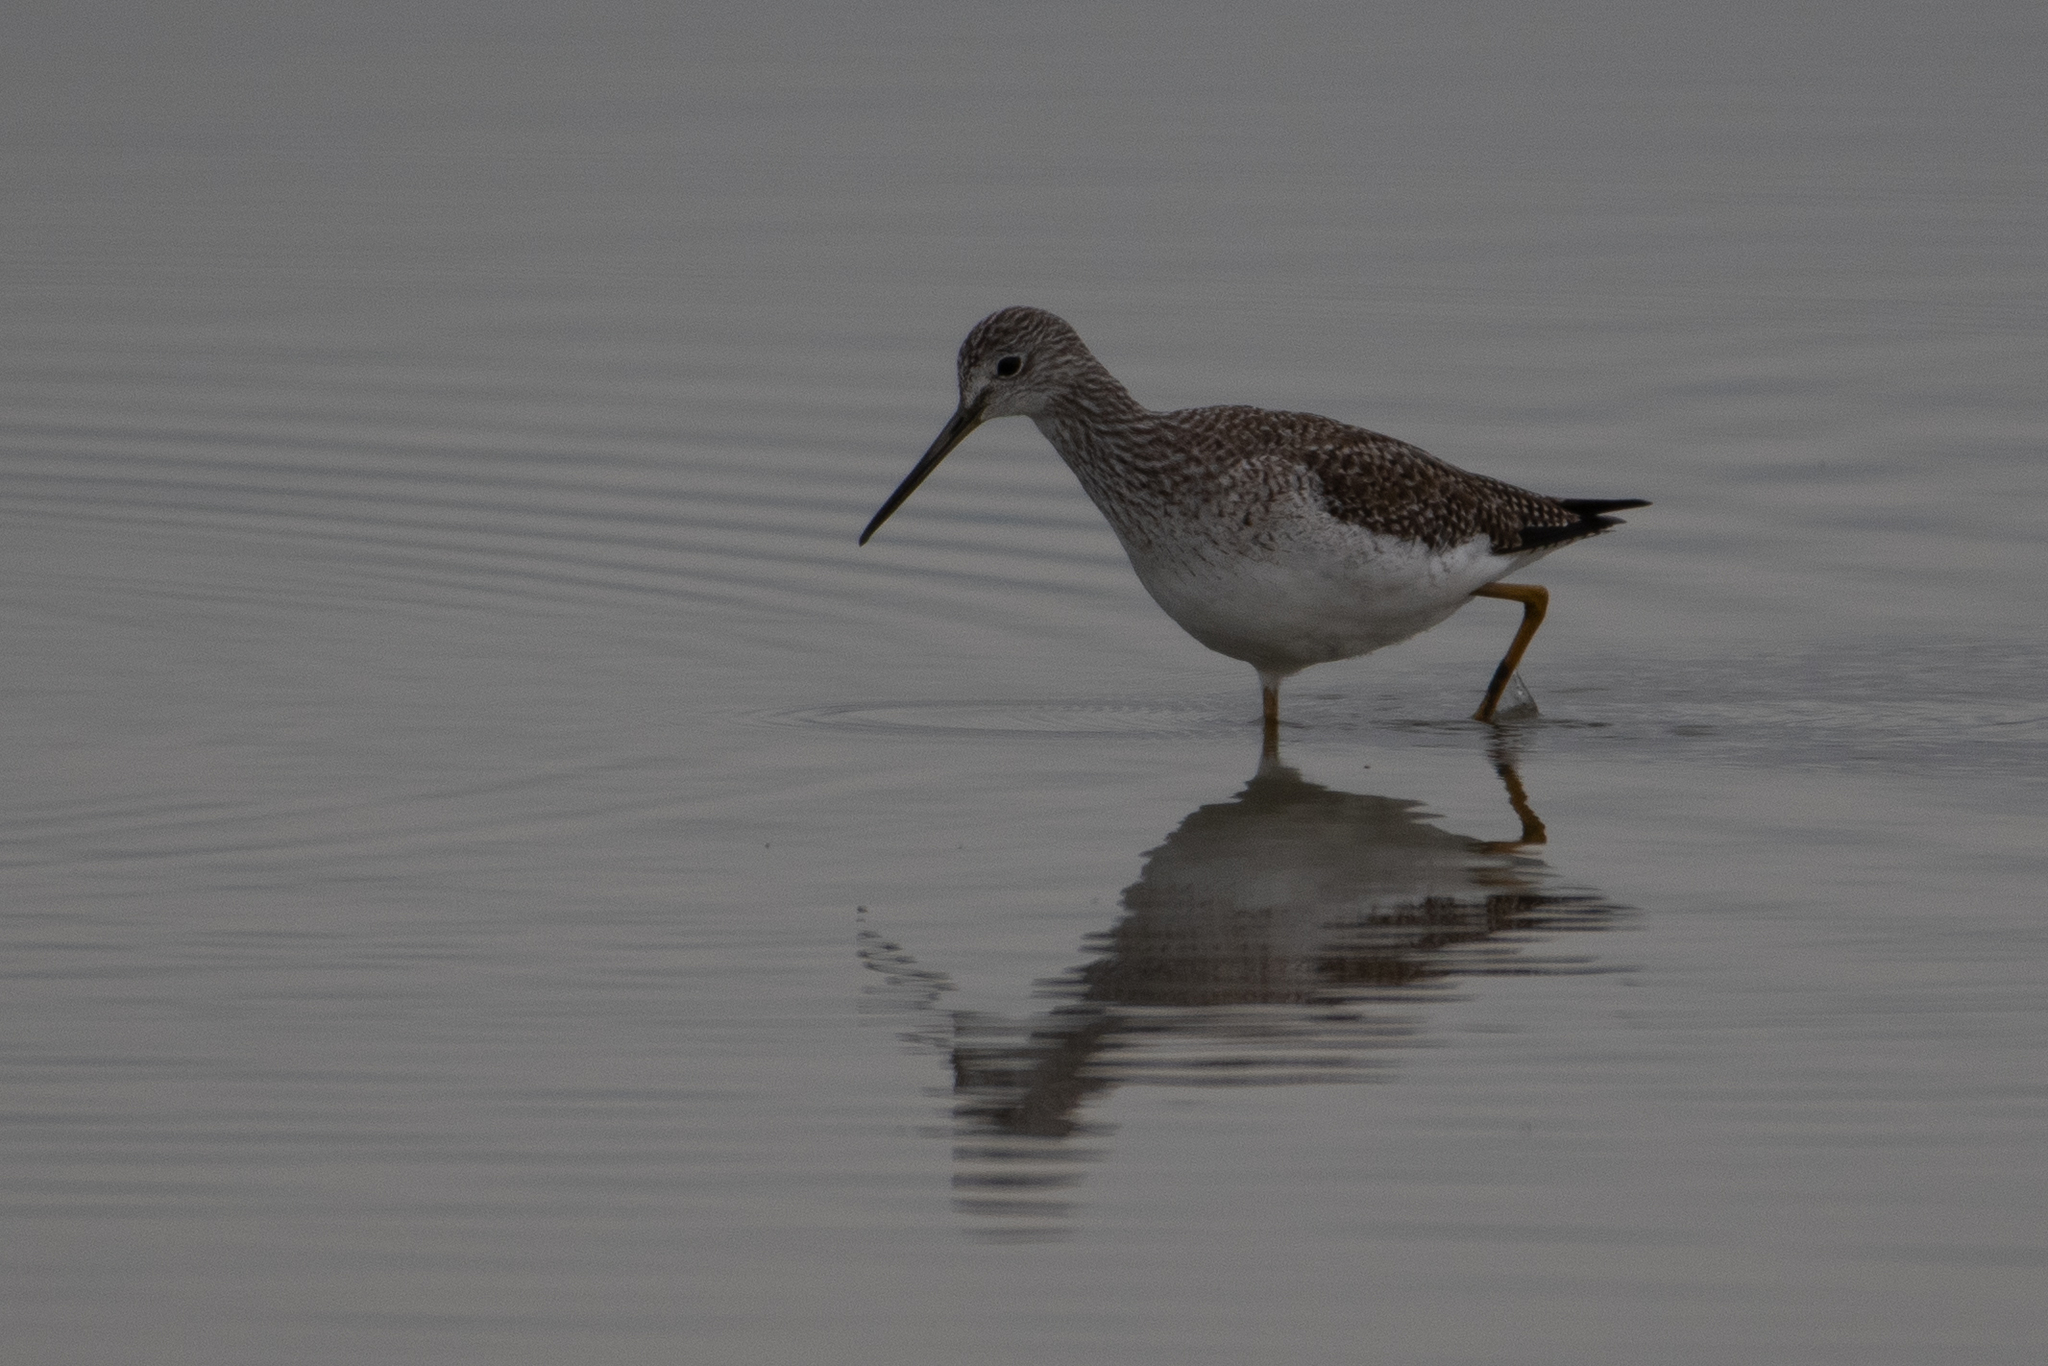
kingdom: Animalia
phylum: Chordata
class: Aves
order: Charadriiformes
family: Scolopacidae
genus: Tringa
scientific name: Tringa melanoleuca
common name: Greater yellowlegs
